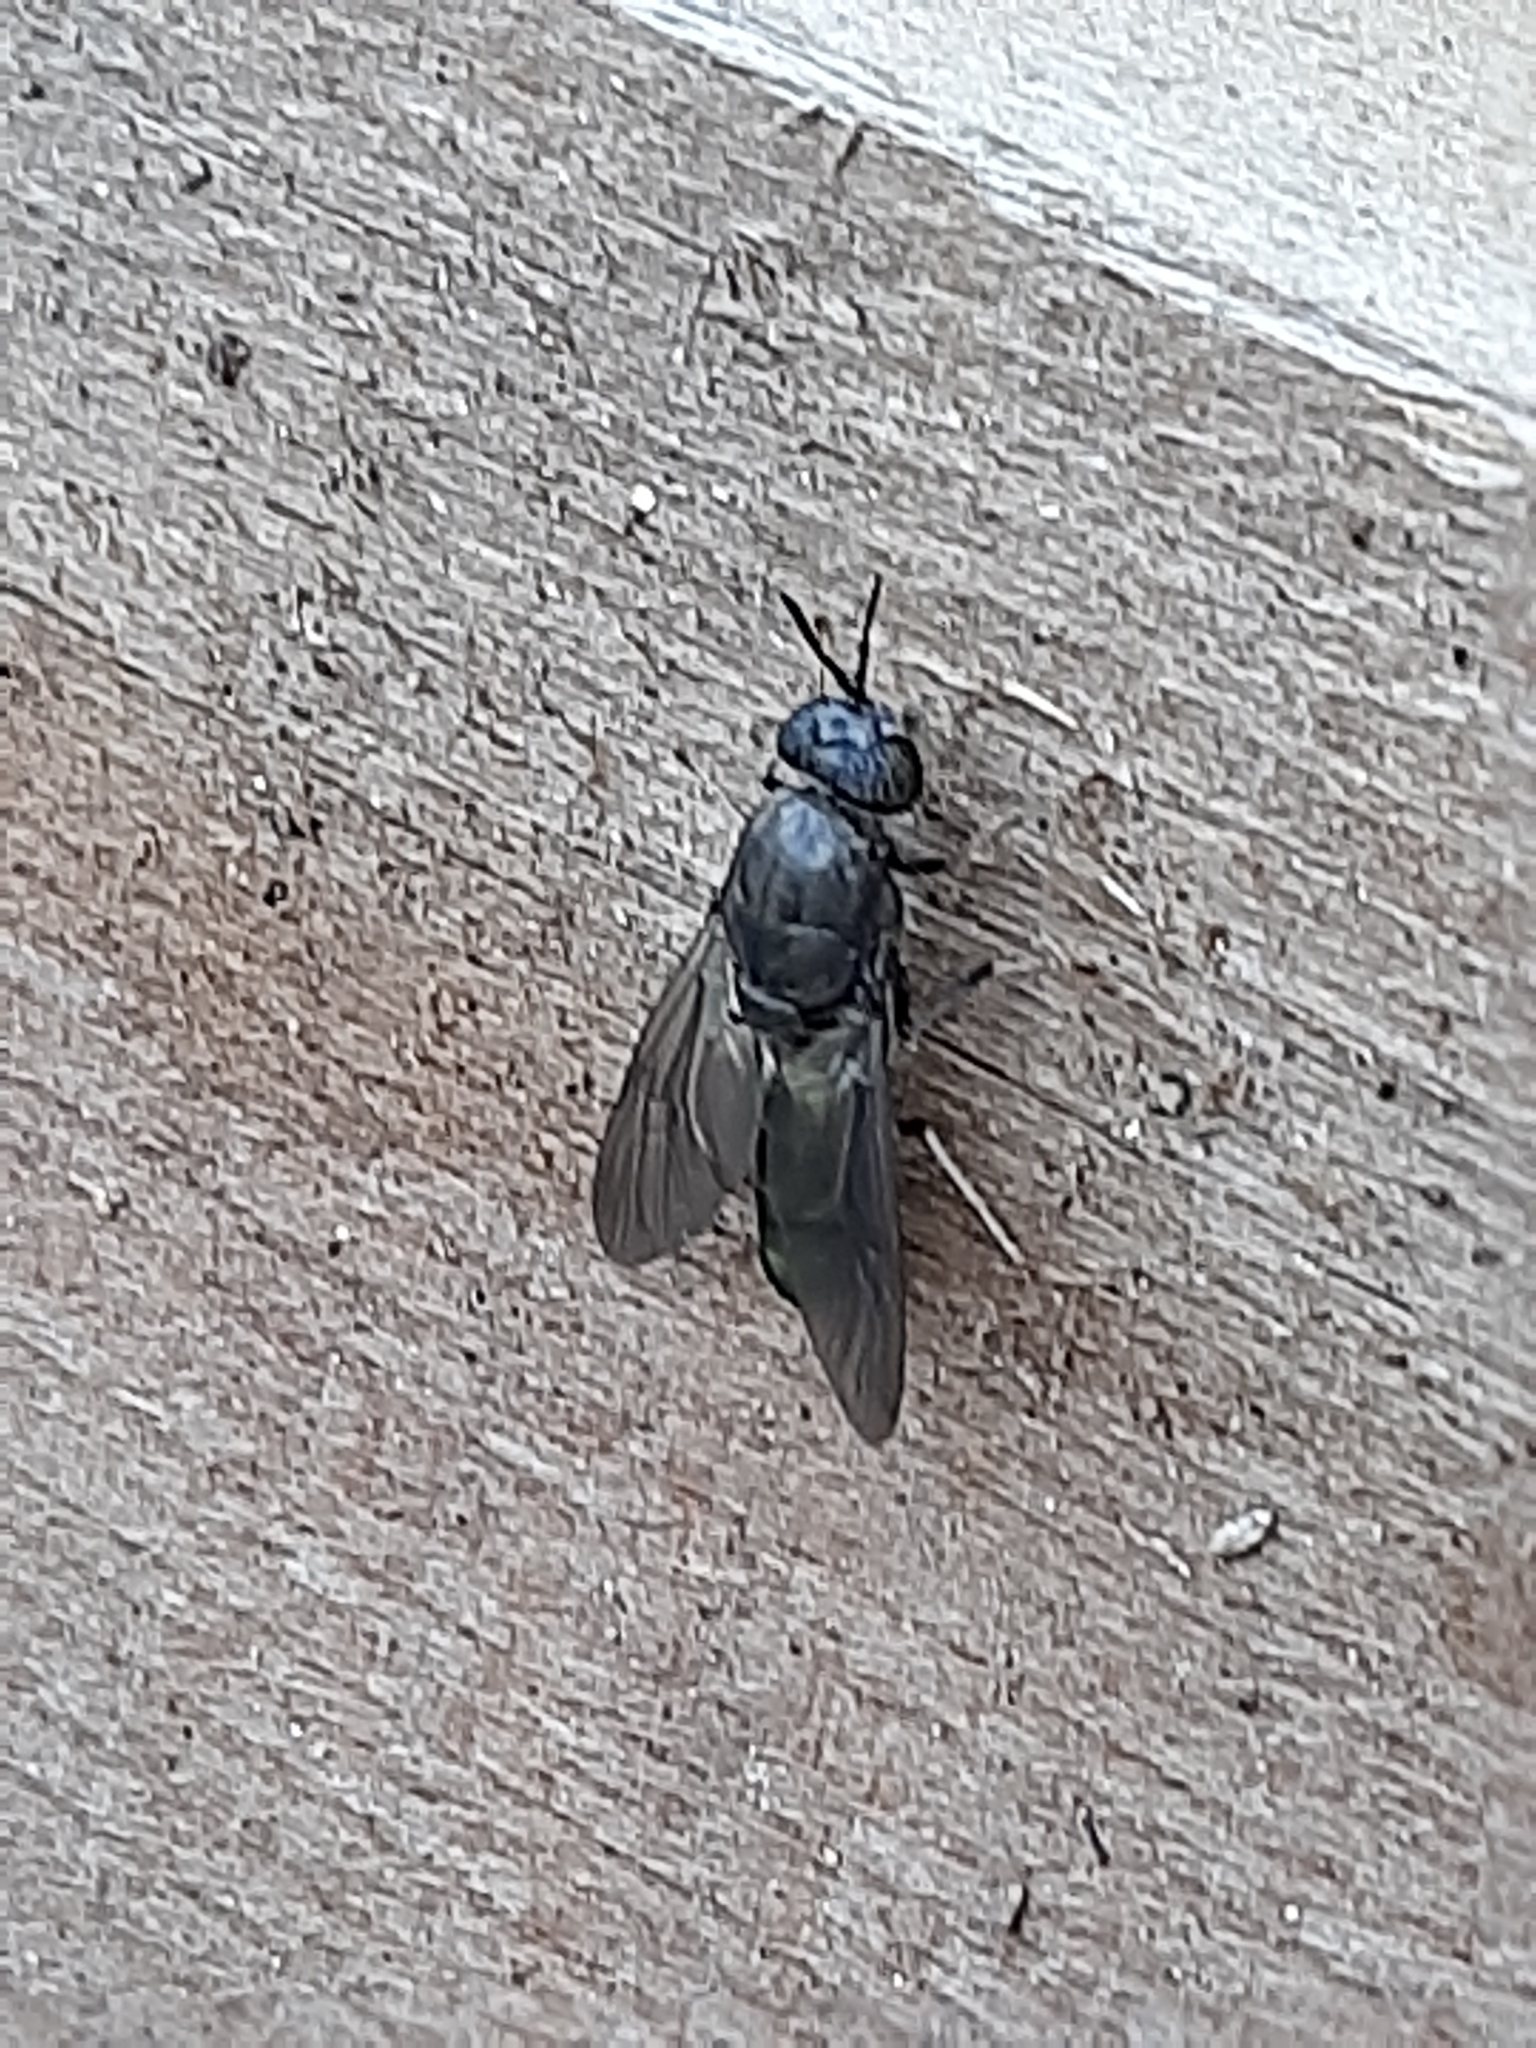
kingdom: Animalia
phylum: Arthropoda
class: Insecta
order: Diptera
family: Stratiomyidae
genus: Hermetia
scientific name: Hermetia illucens
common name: Black soldier fly
